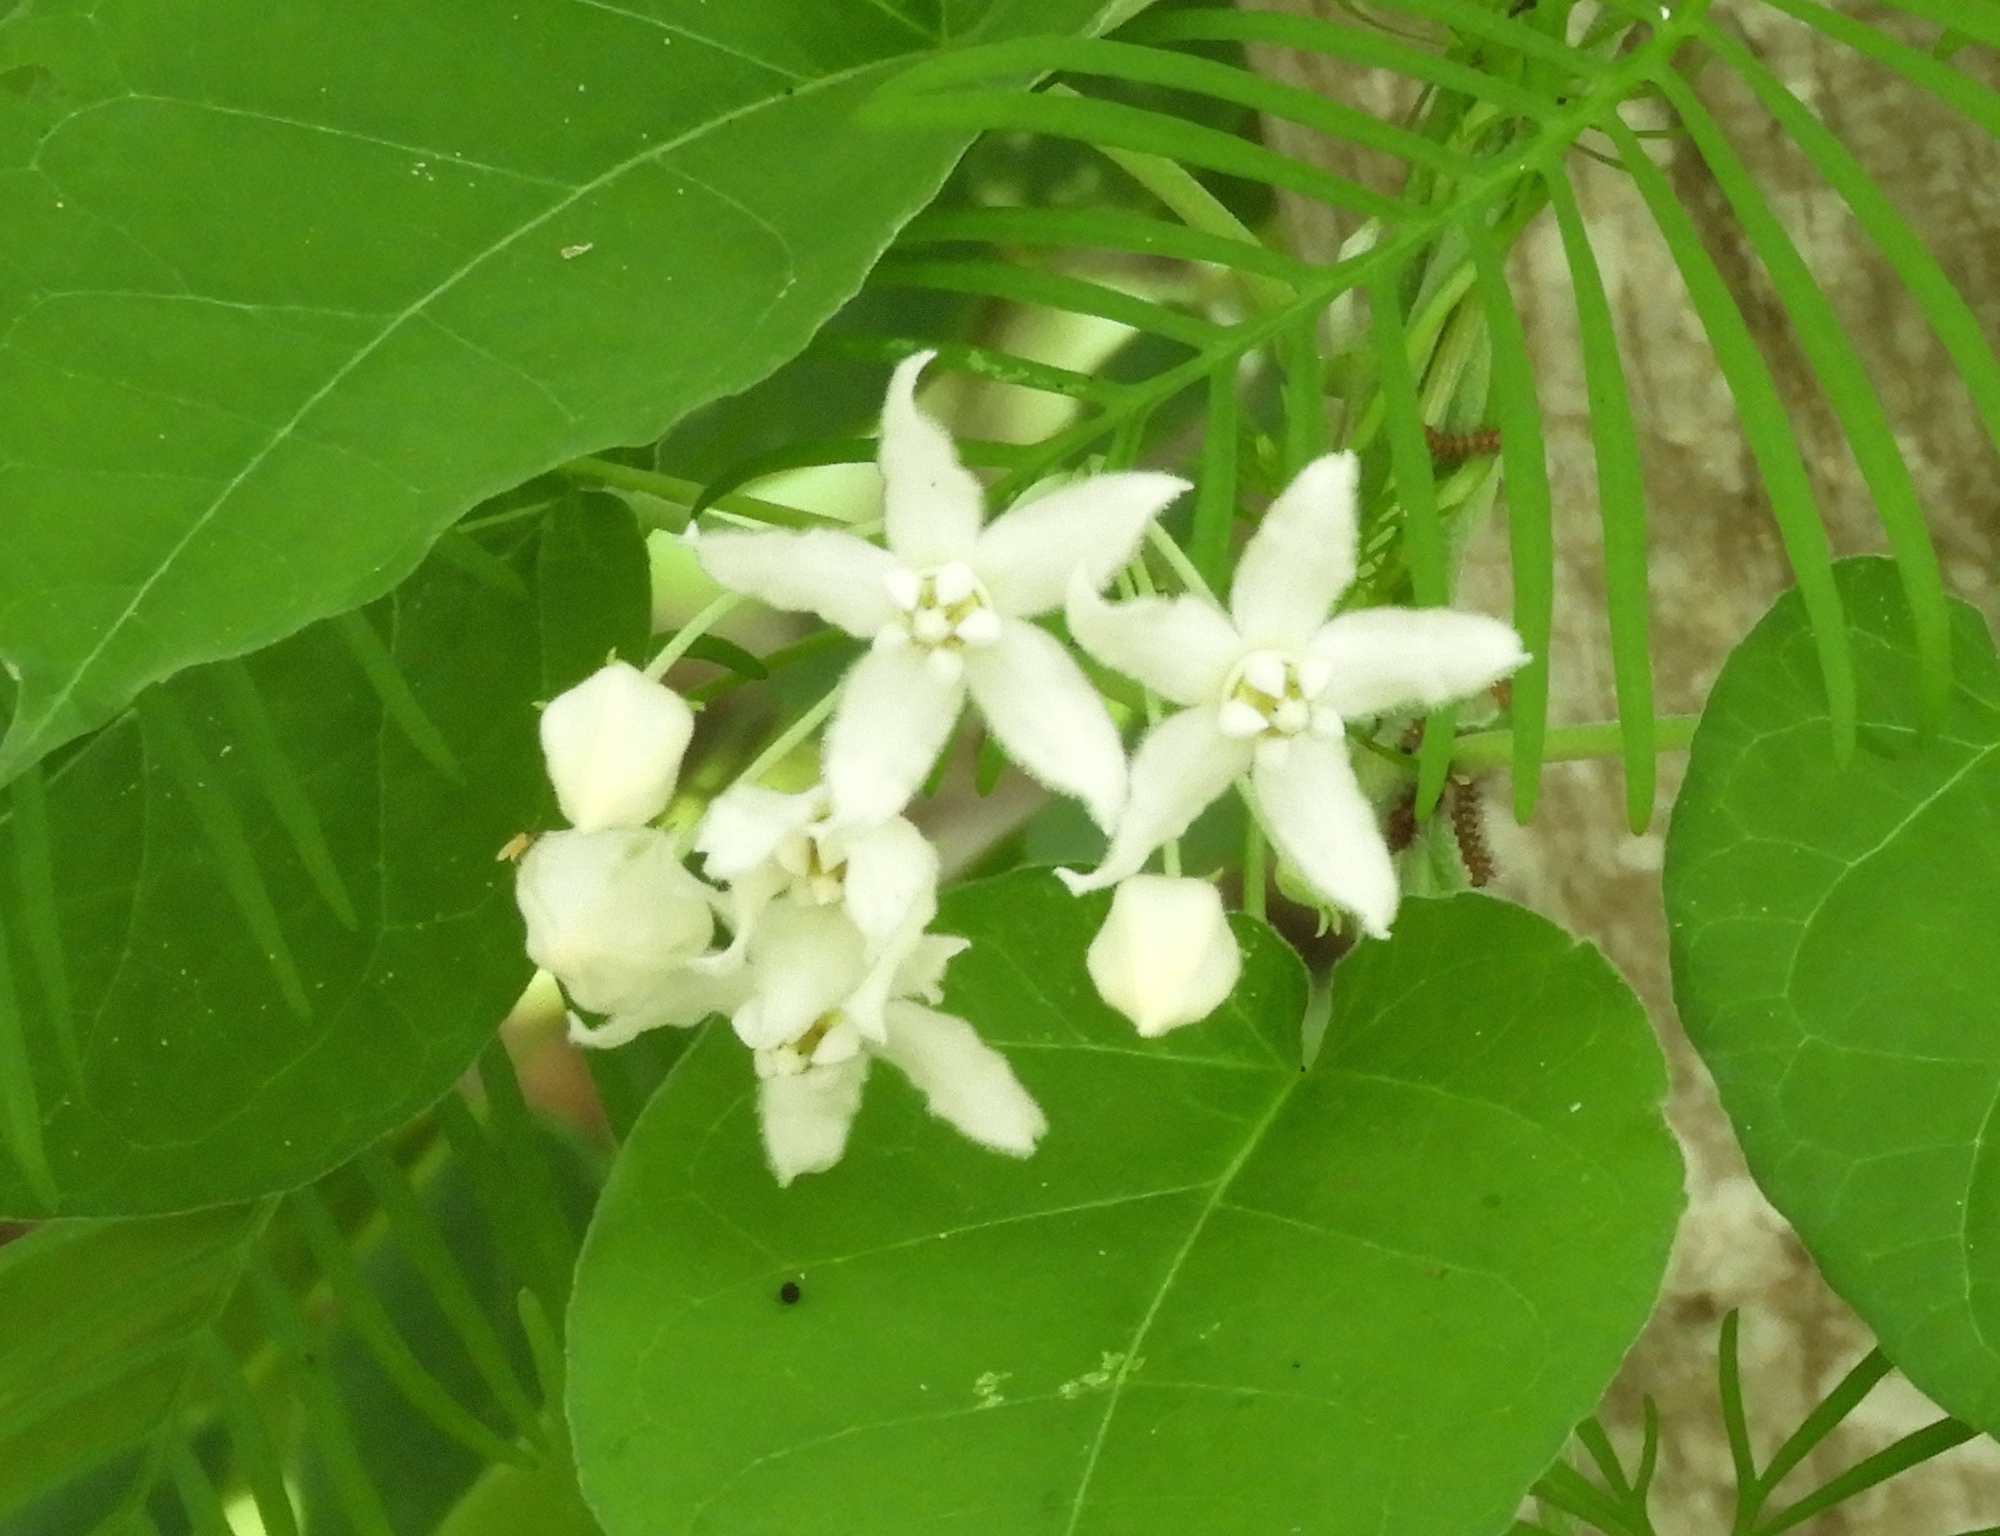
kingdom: Plantae
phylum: Tracheophyta
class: Magnoliopsida
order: Gentianales
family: Apocynaceae
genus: Funastrum
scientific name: Funastrum pannosum
